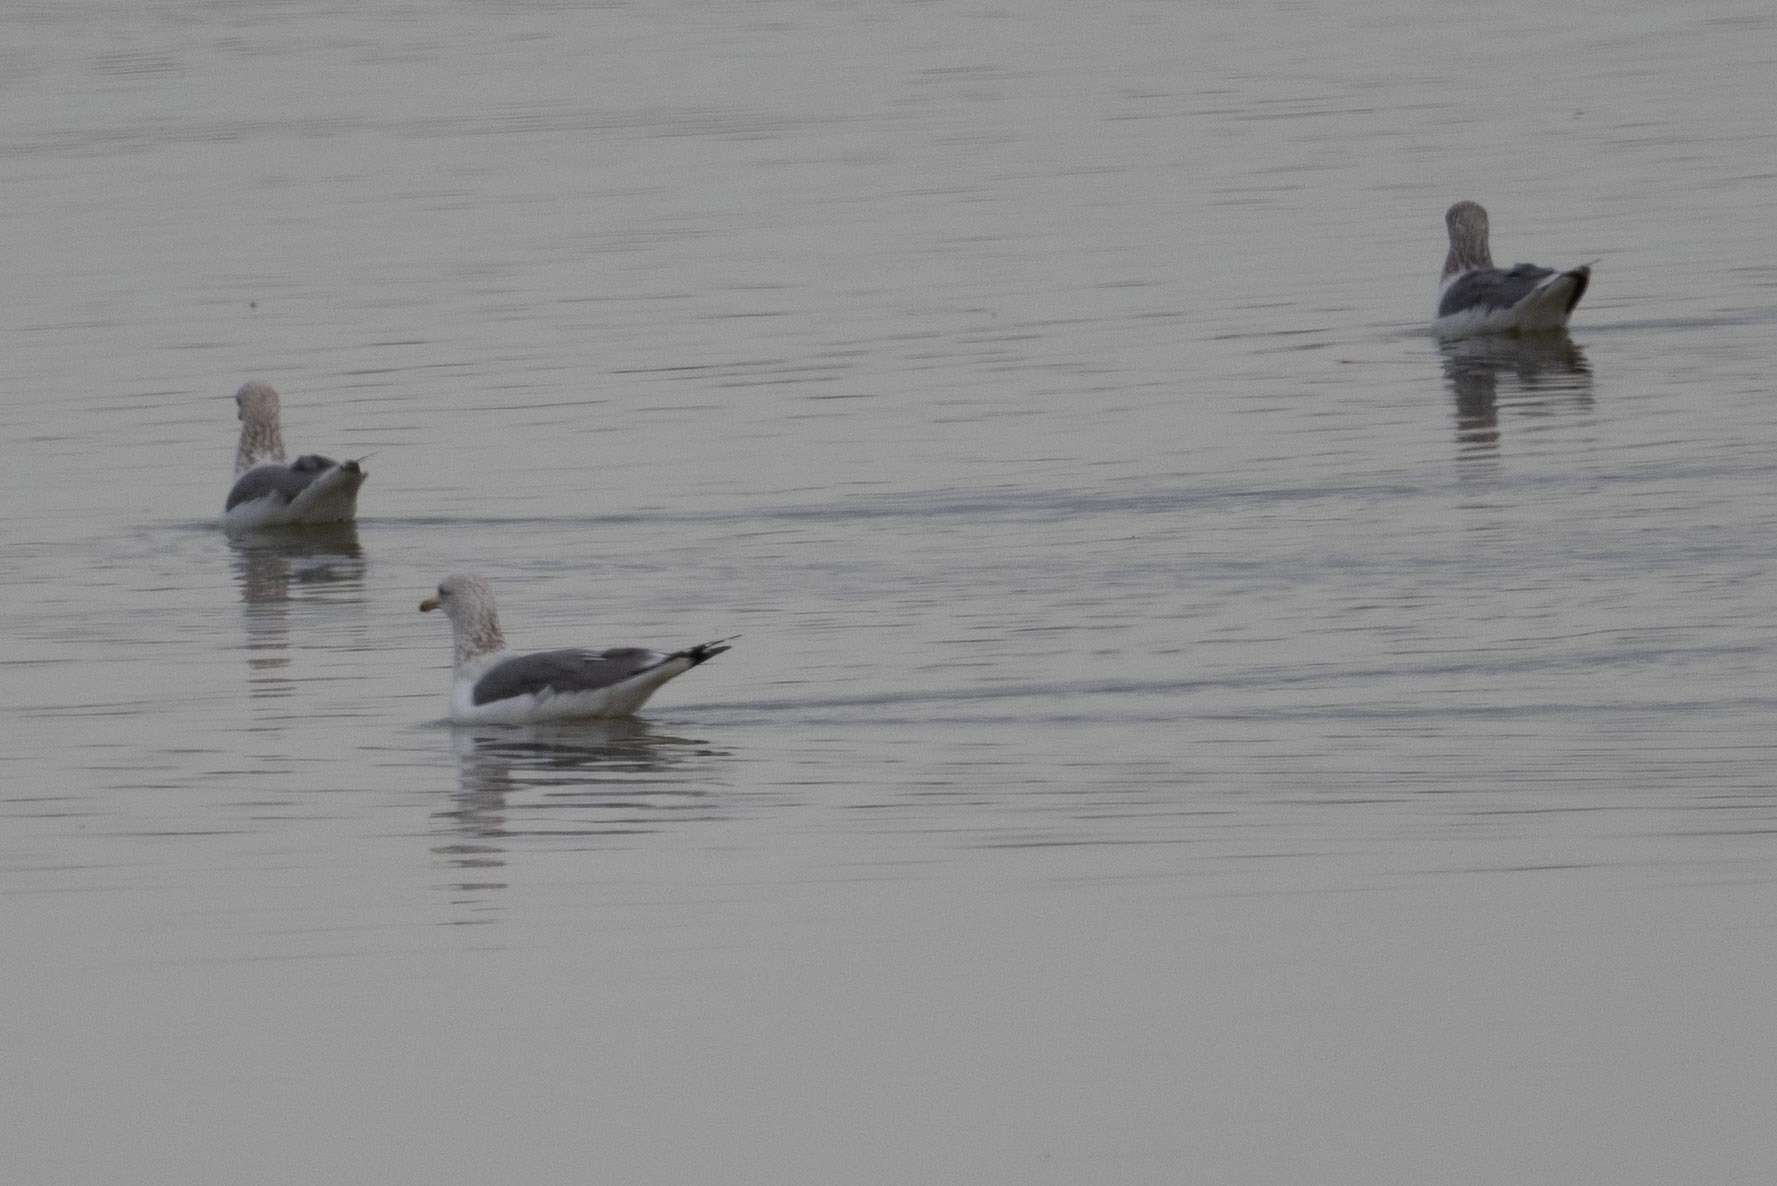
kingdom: Animalia
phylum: Chordata
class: Aves
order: Charadriiformes
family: Laridae
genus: Larus
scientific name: Larus californicus
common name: California gull
